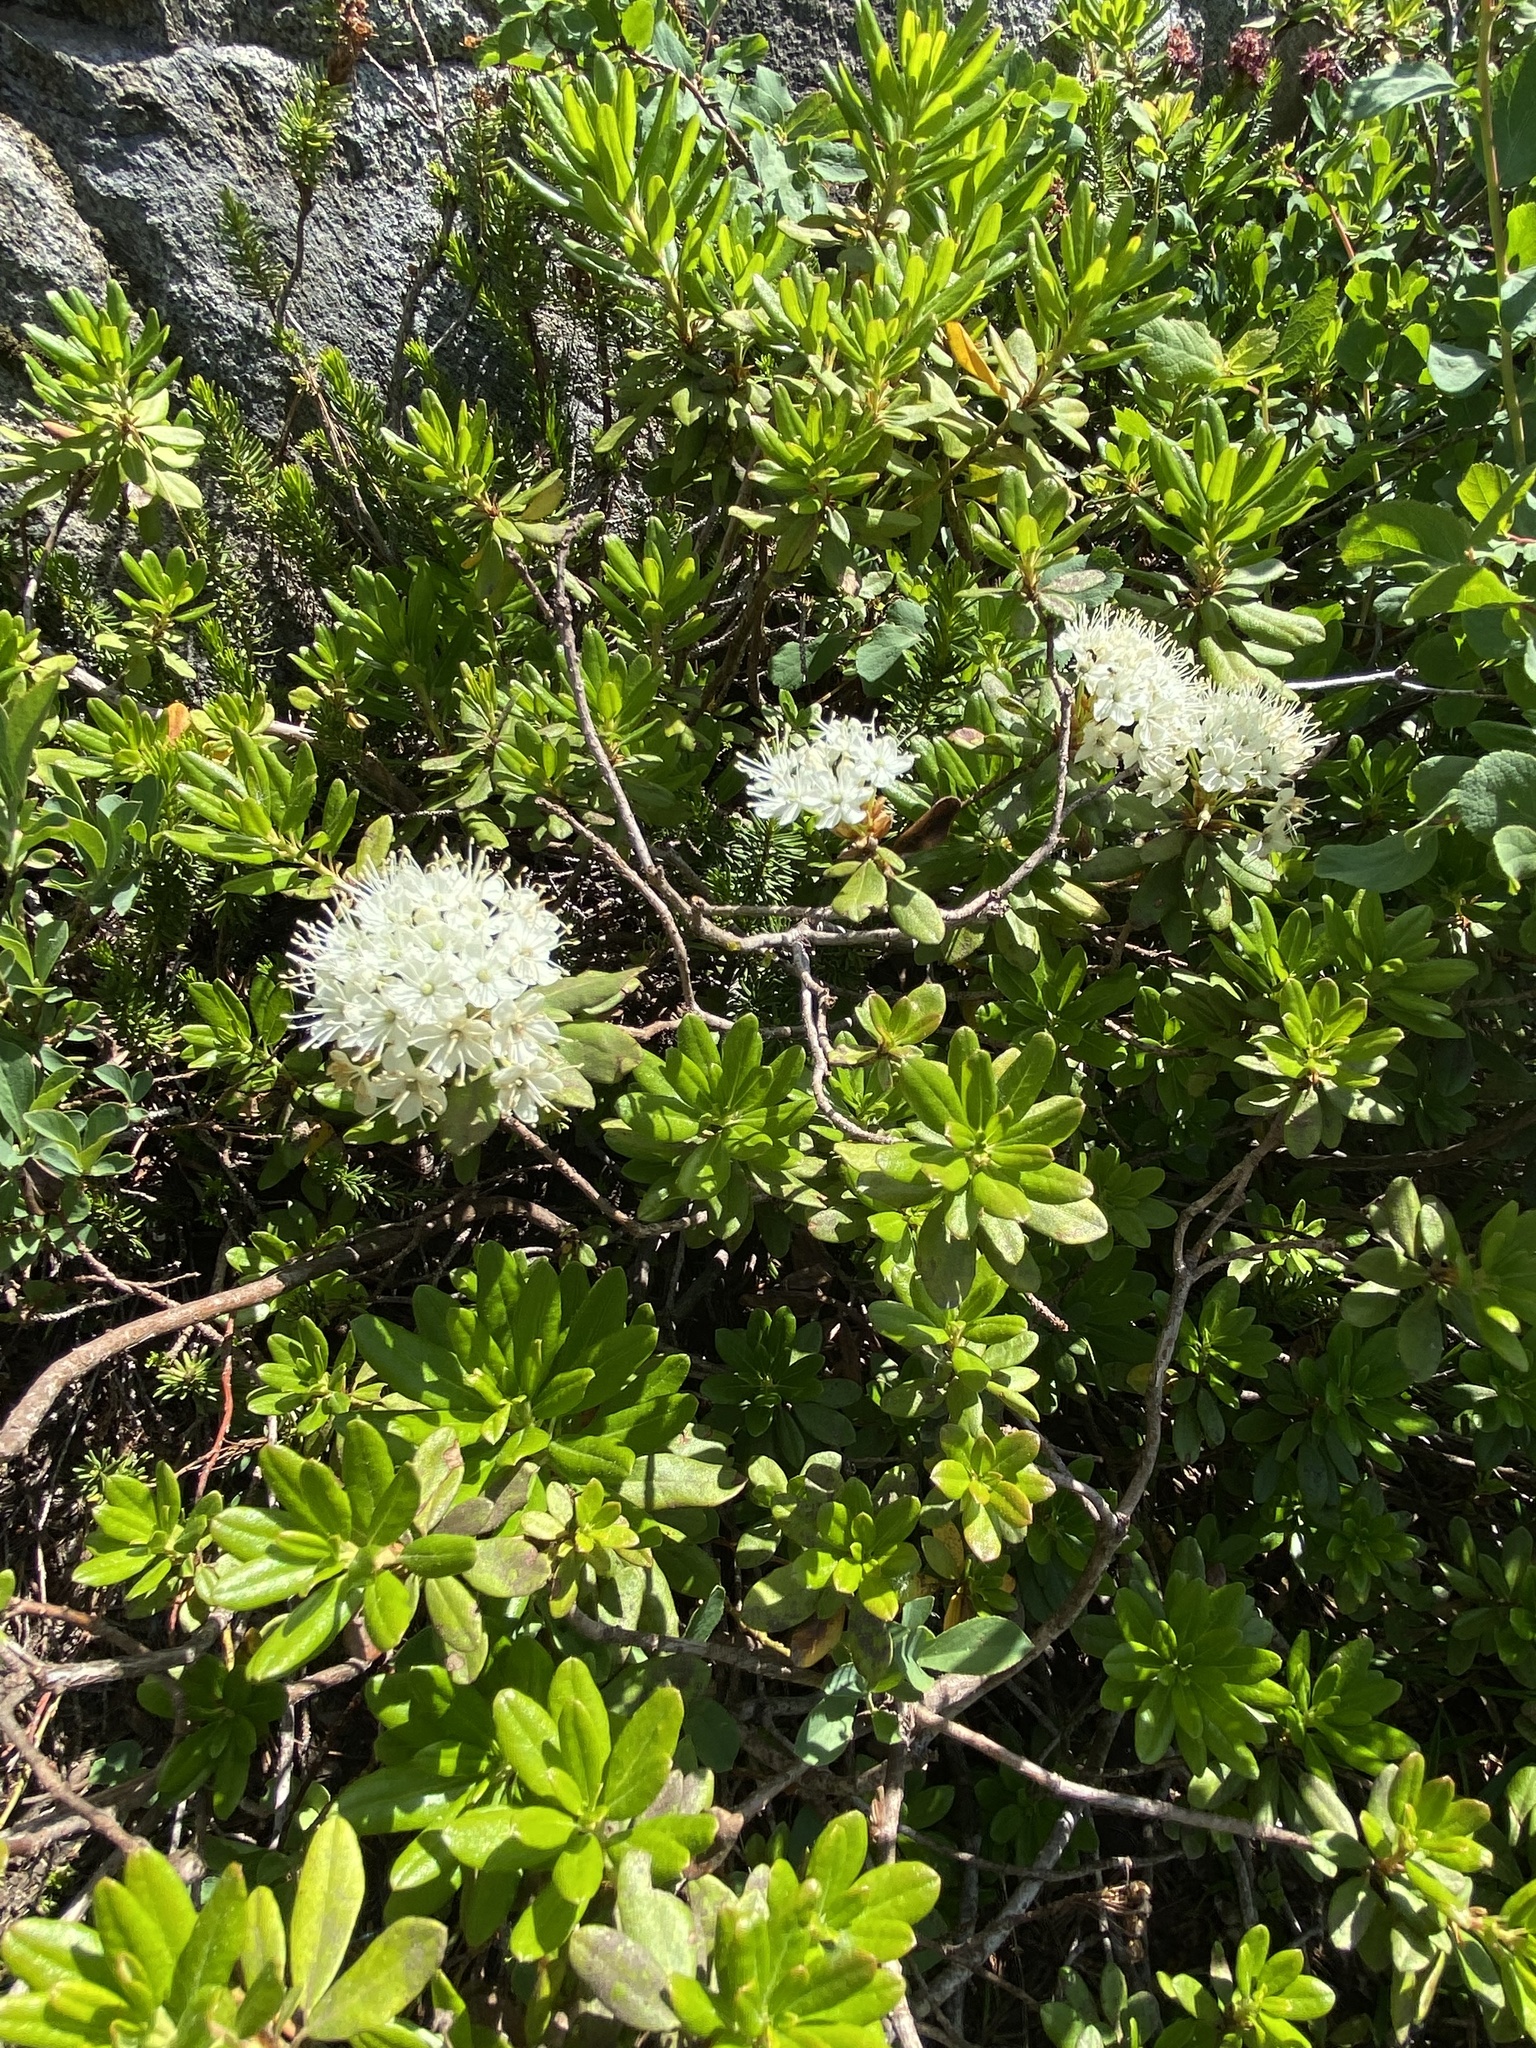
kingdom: Plantae
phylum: Tracheophyta
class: Magnoliopsida
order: Ericales
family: Ericaceae
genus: Rhododendron
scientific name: Rhododendron columbianum
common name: Western labrador tea
